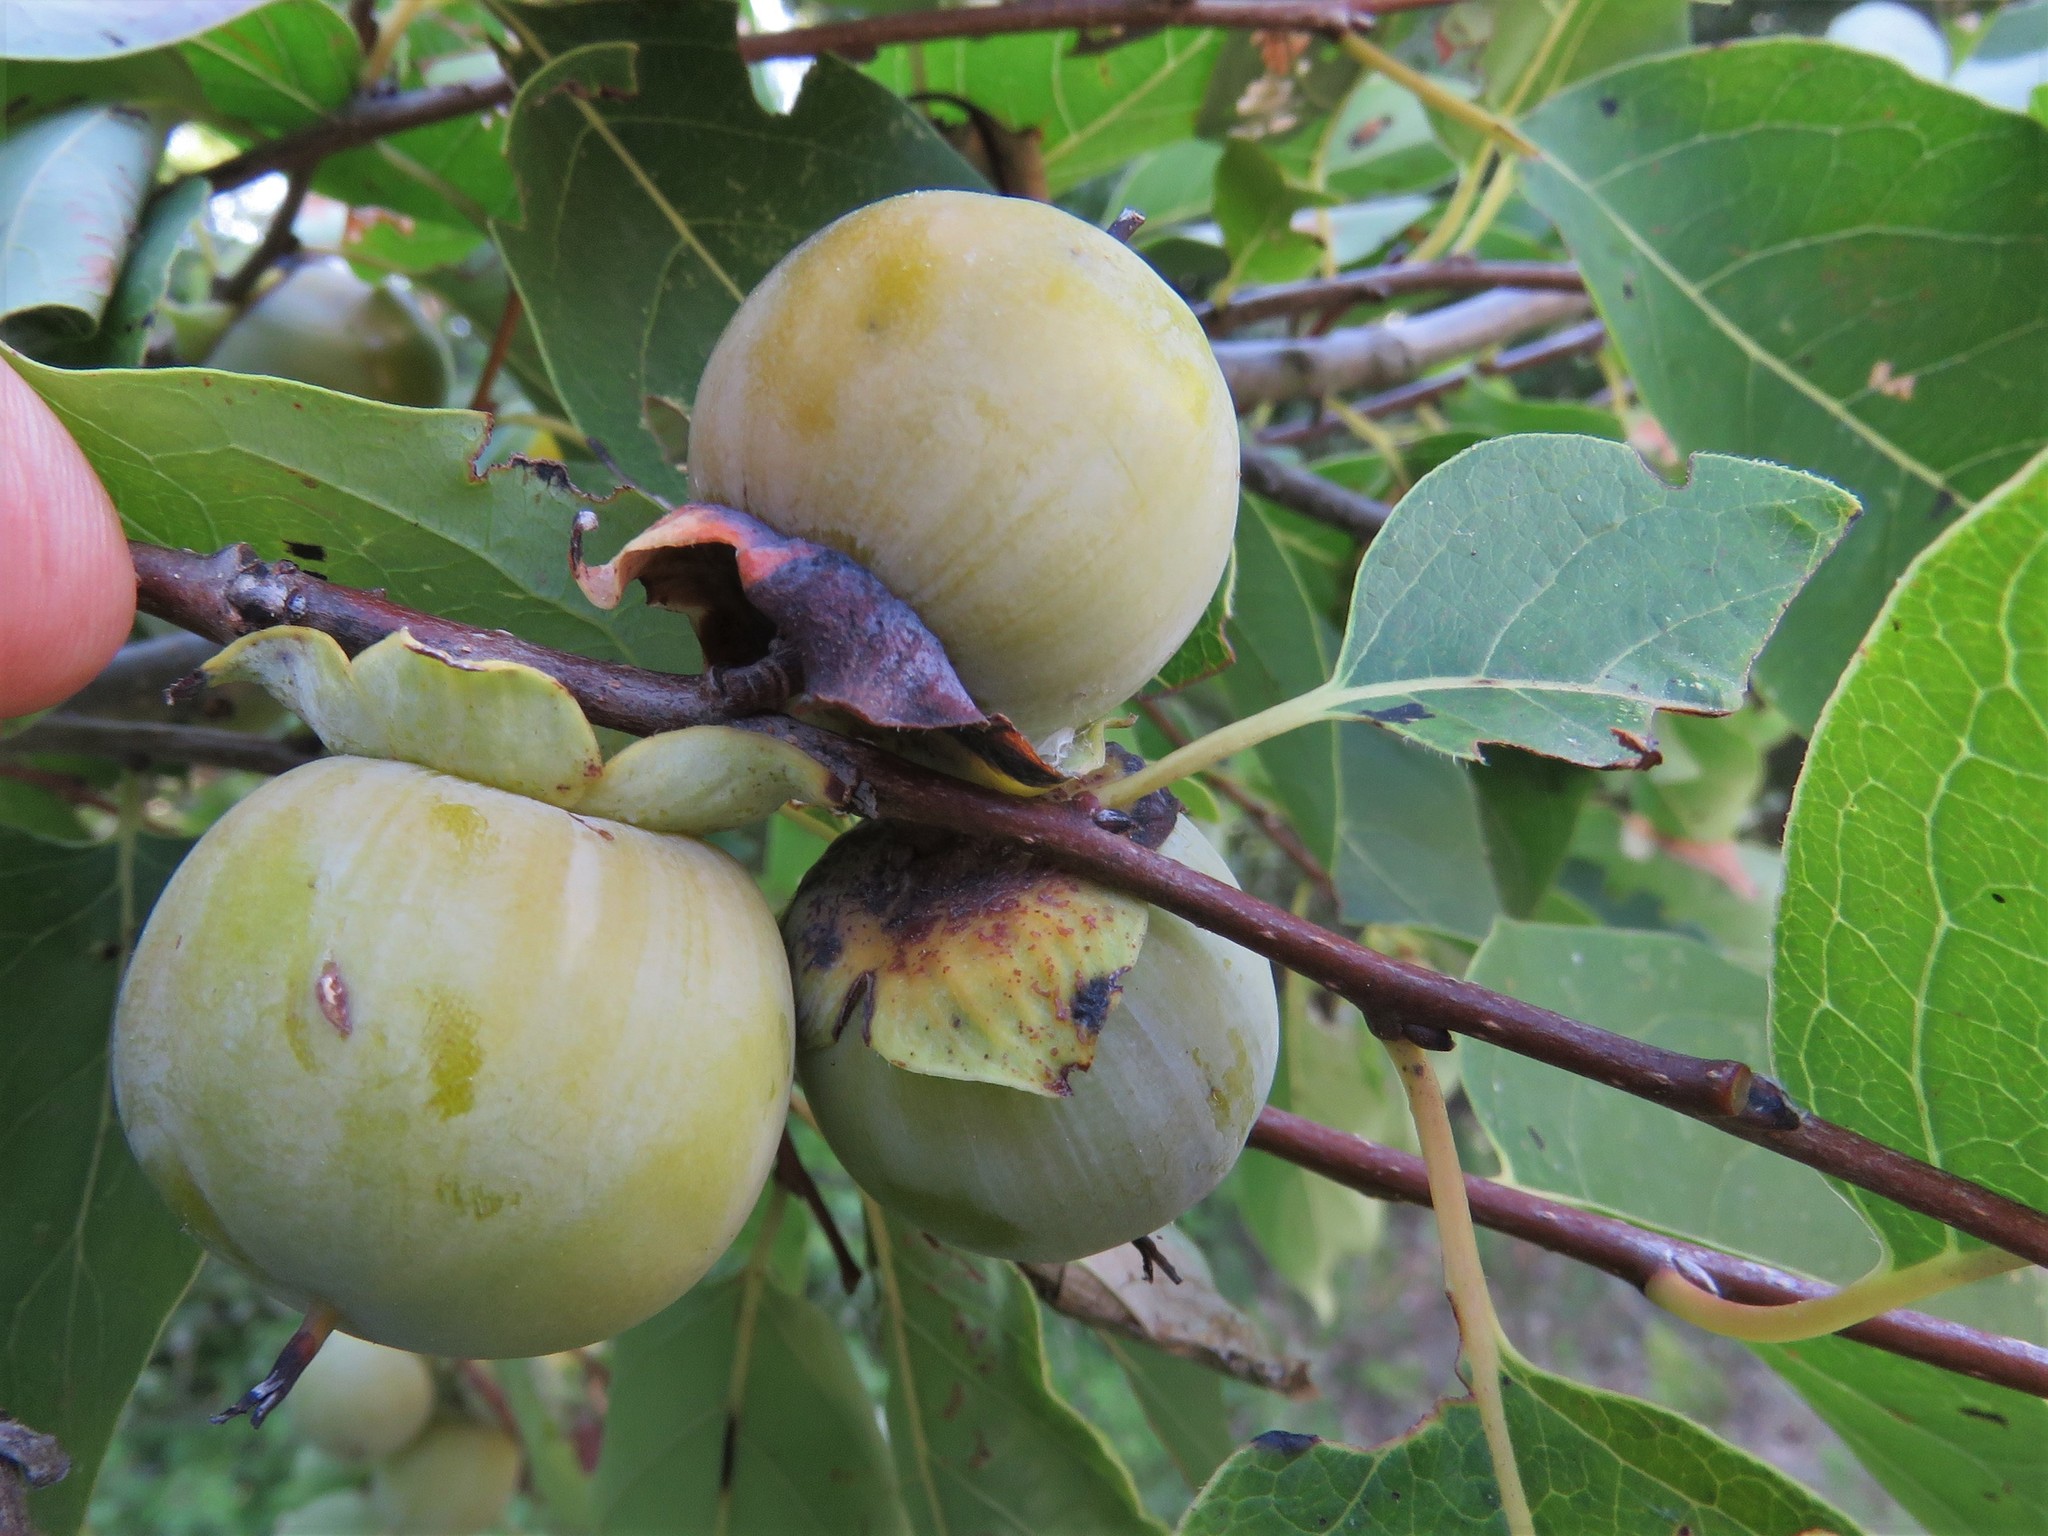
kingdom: Plantae
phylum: Tracheophyta
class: Magnoliopsida
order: Ericales
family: Ebenaceae
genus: Diospyros
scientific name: Diospyros virginiana
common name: Persimmon
